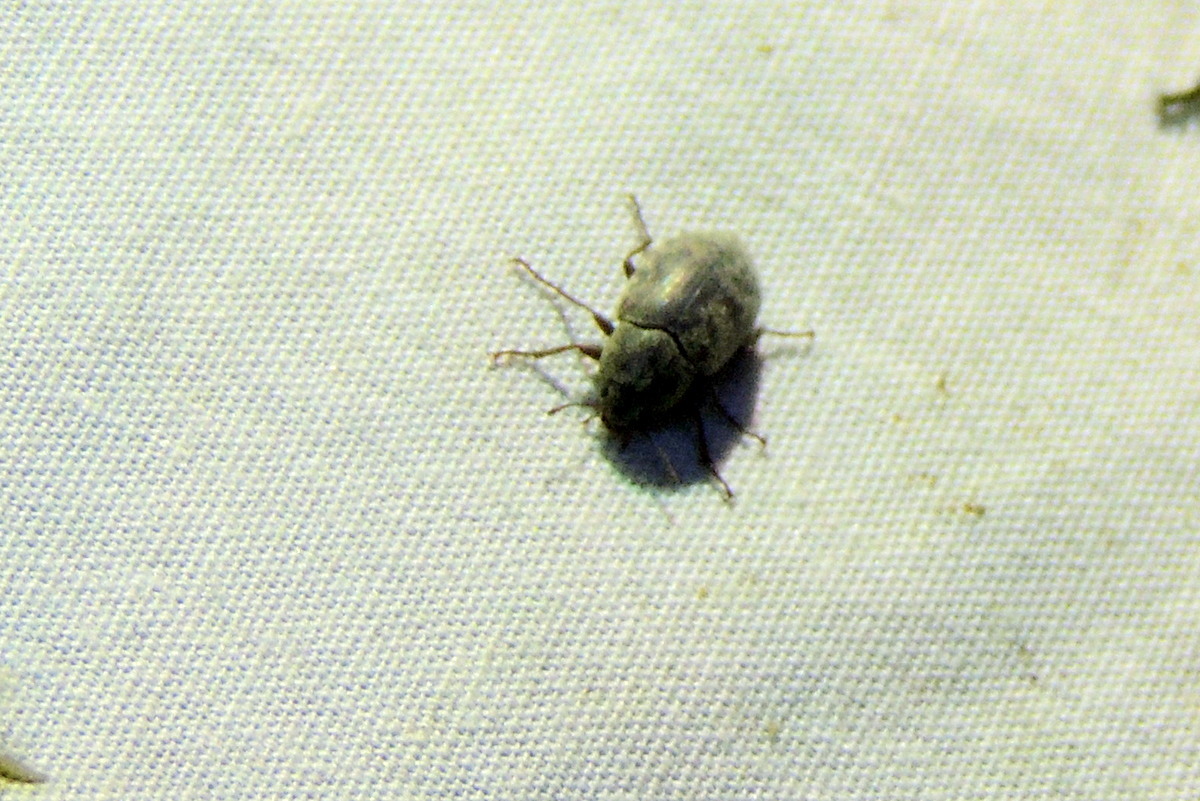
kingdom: Animalia
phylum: Arthropoda
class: Insecta
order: Coleoptera
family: Tenebrionidae
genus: Bothrotes
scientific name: Bothrotes canaliculatus
